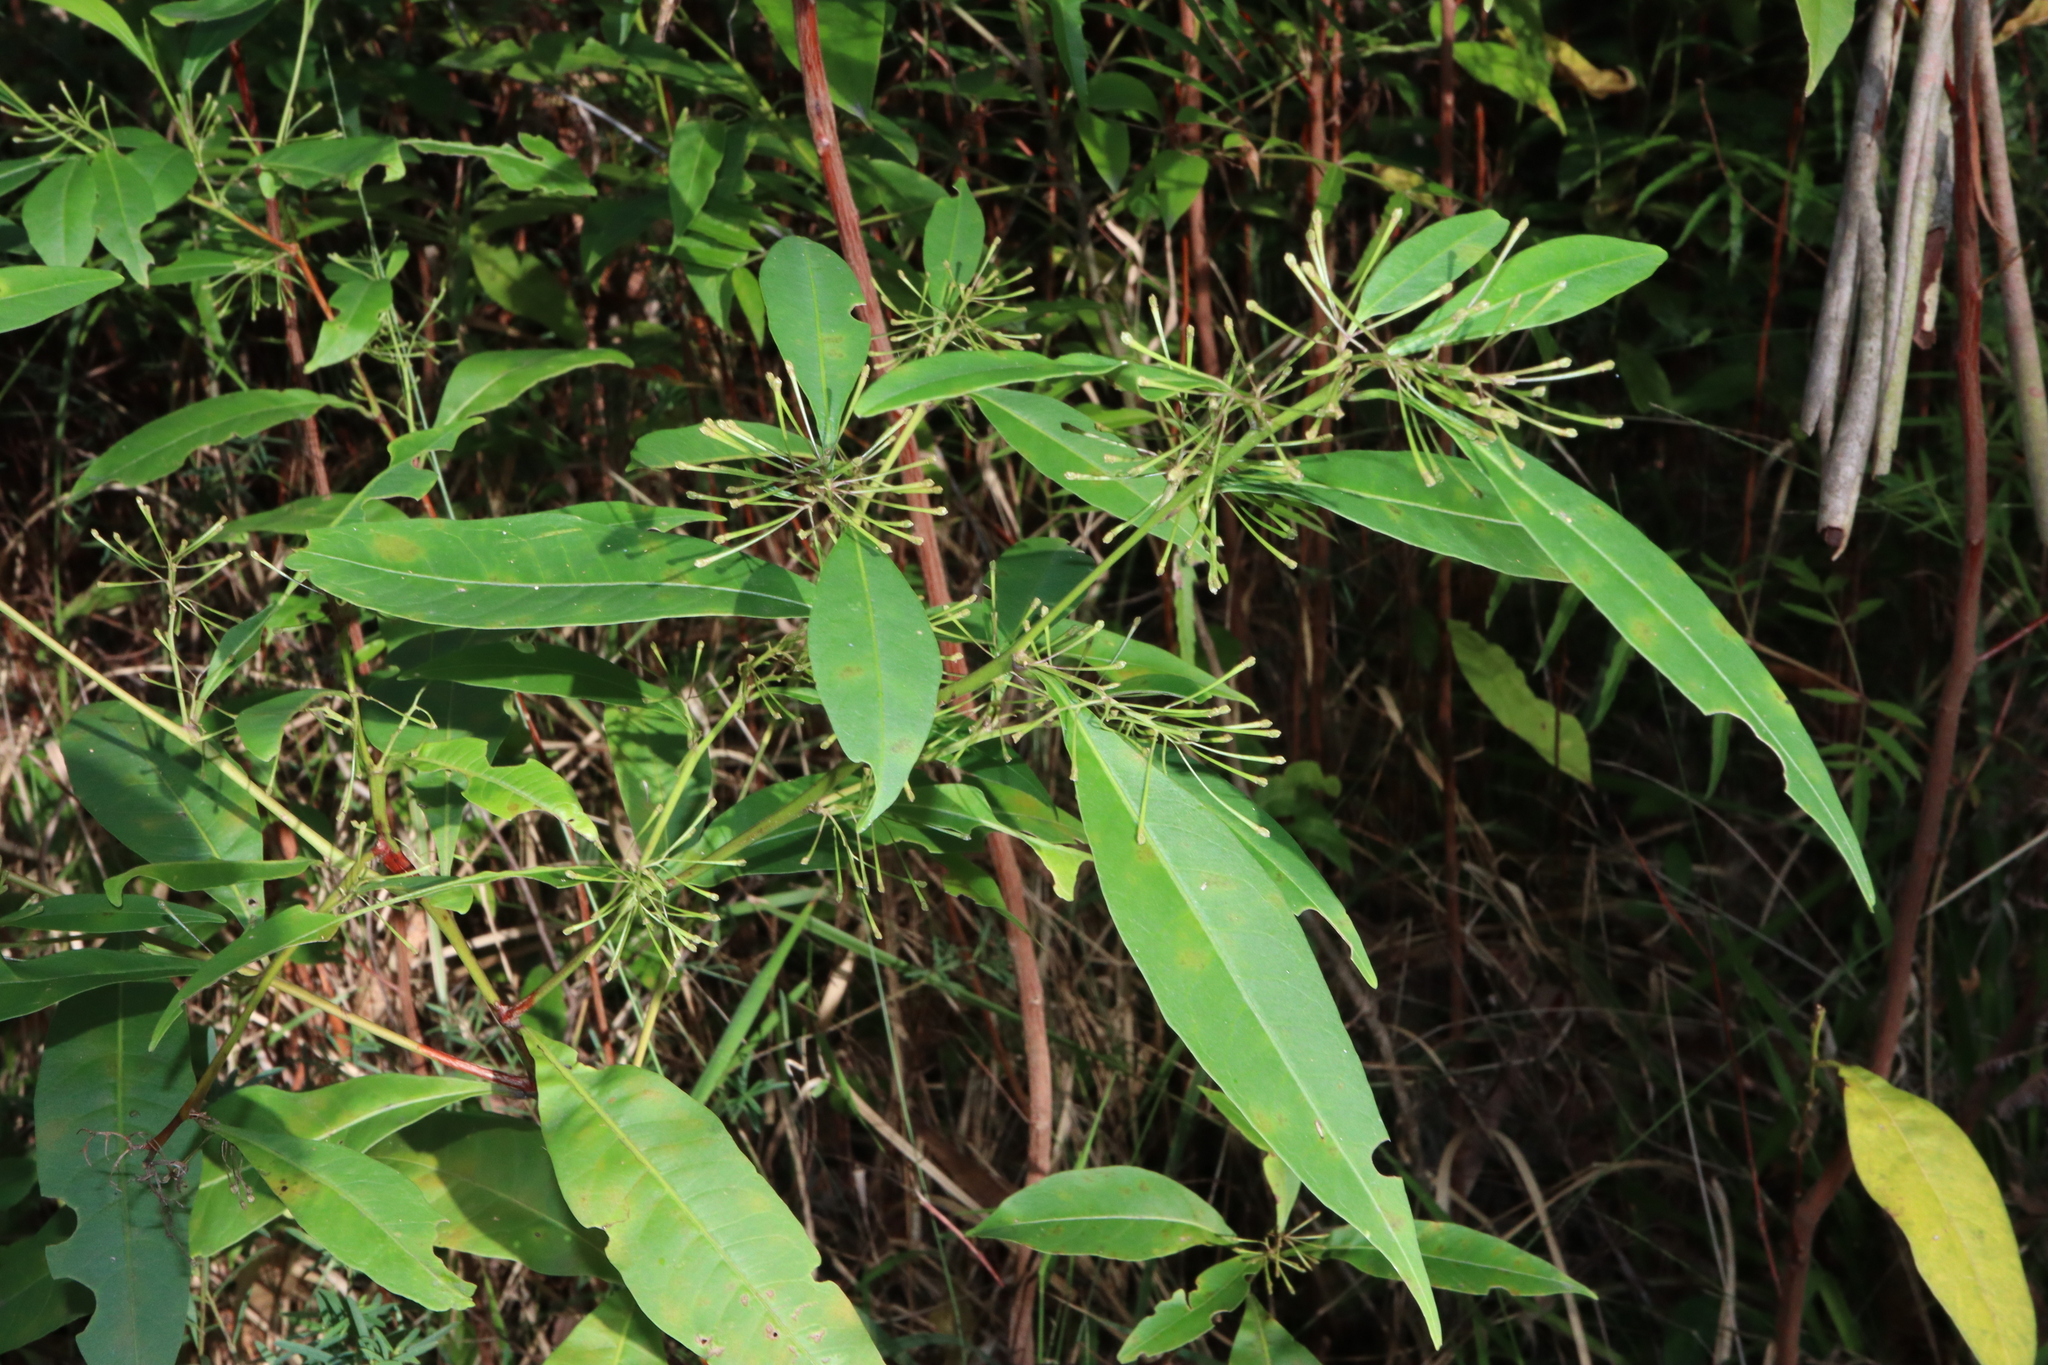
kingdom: Plantae
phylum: Tracheophyta
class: Magnoliopsida
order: Sapindales
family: Sapindaceae
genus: Dodonaea
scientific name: Dodonaea triquetra
